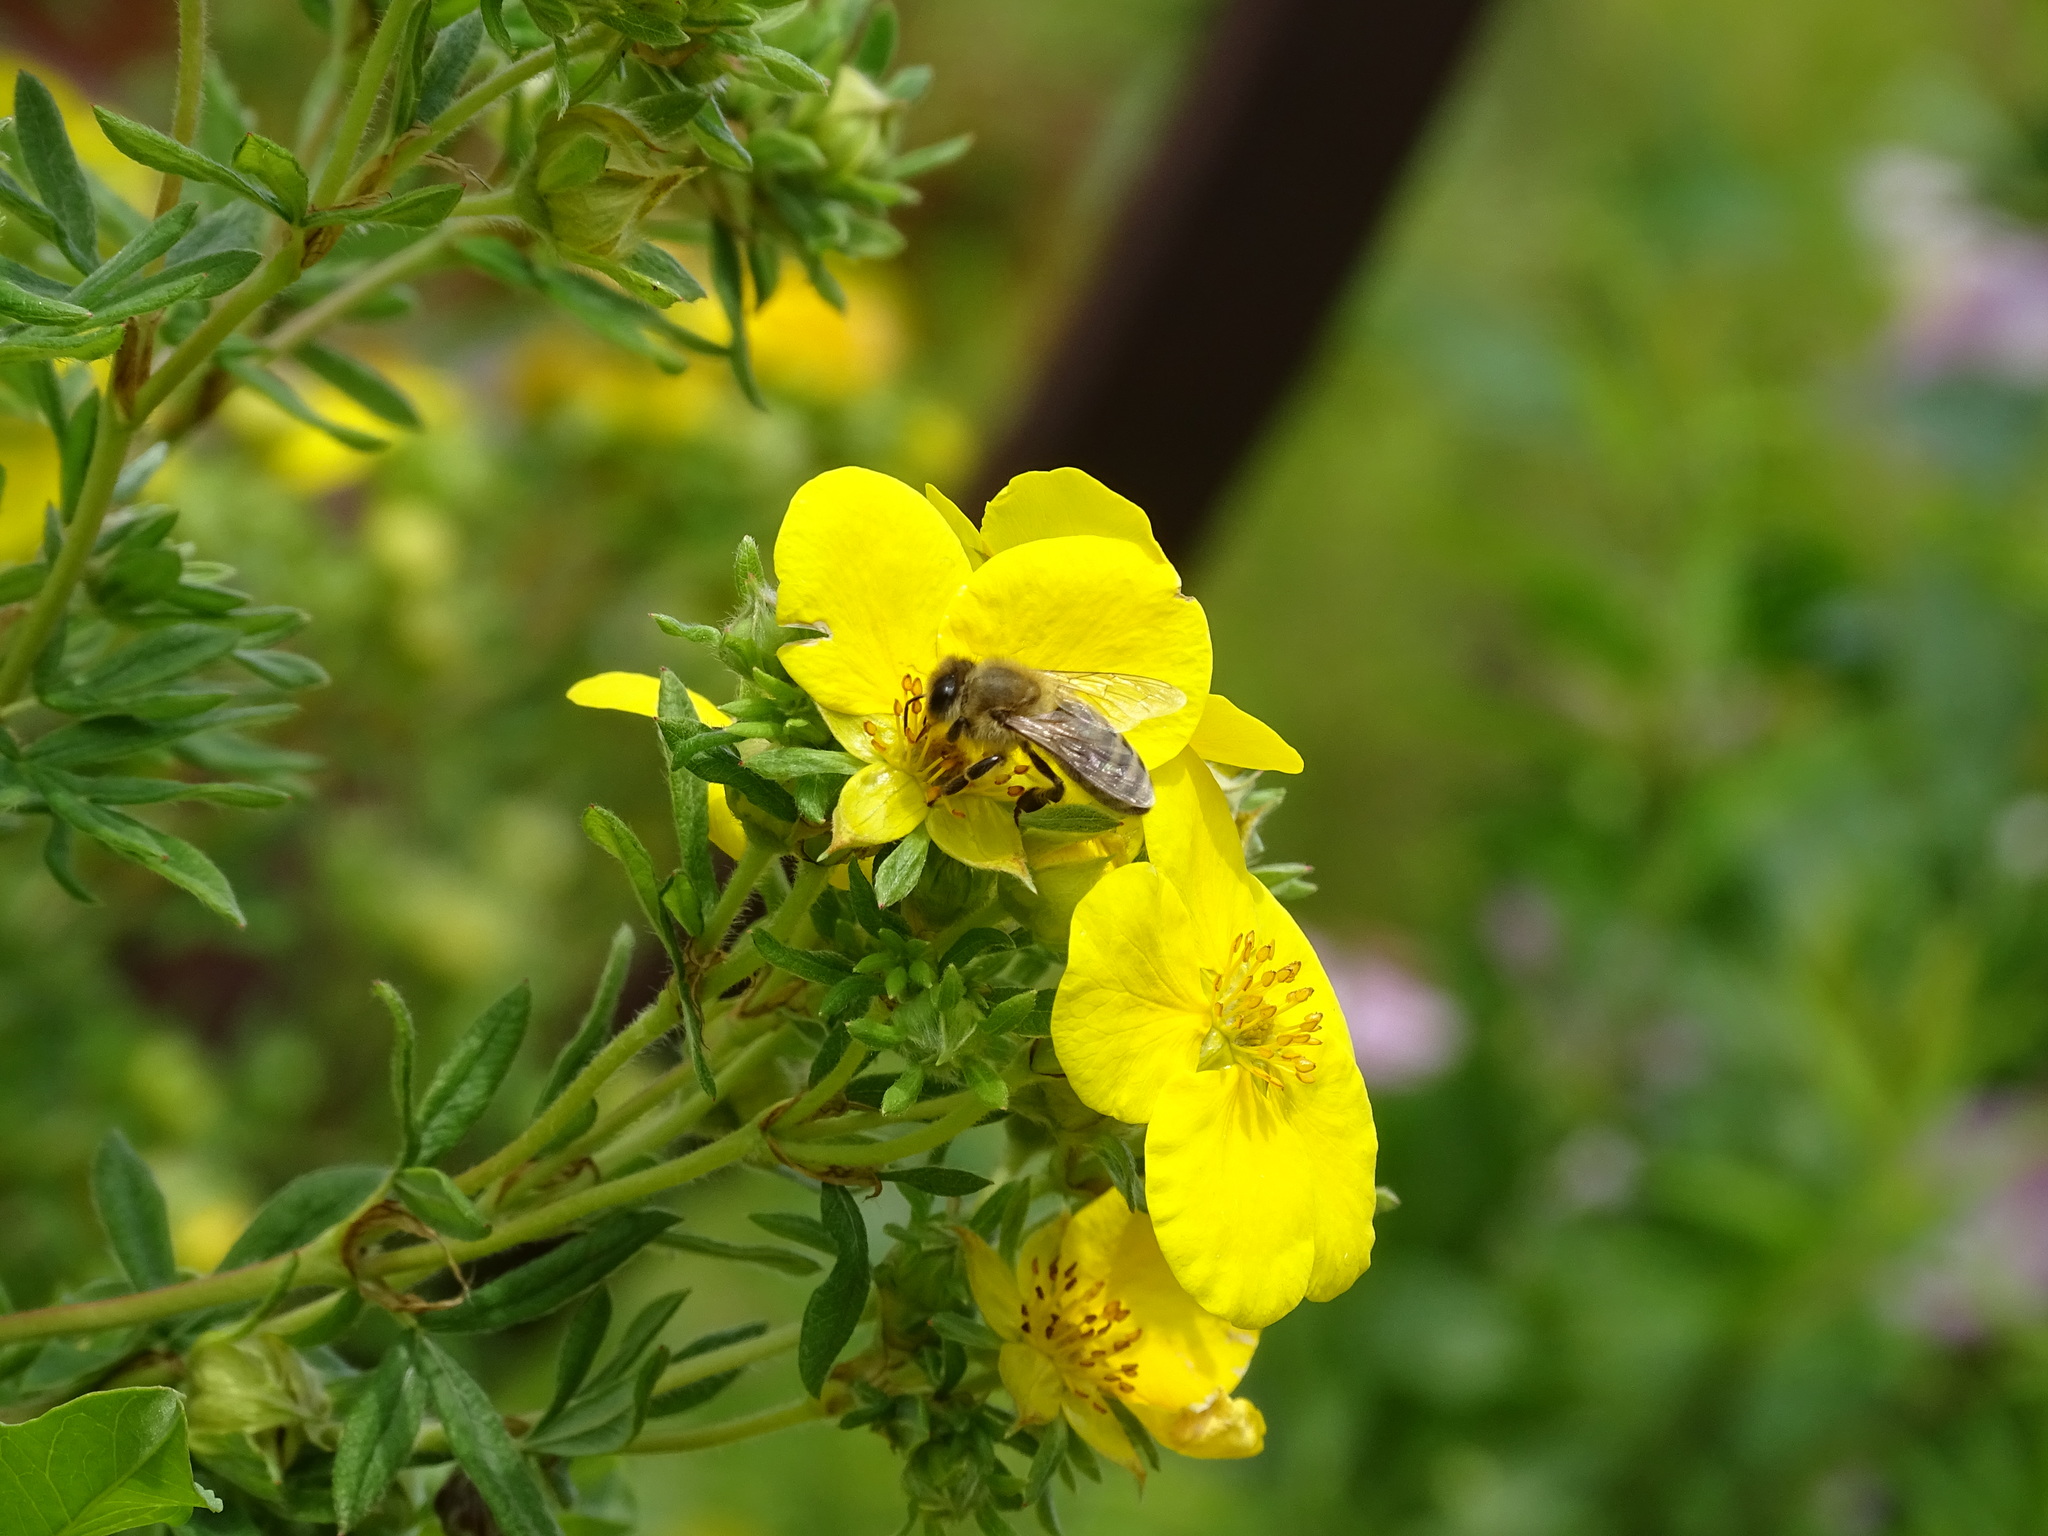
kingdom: Animalia
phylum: Arthropoda
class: Insecta
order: Hymenoptera
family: Apidae
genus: Apis
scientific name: Apis mellifera
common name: Honey bee
